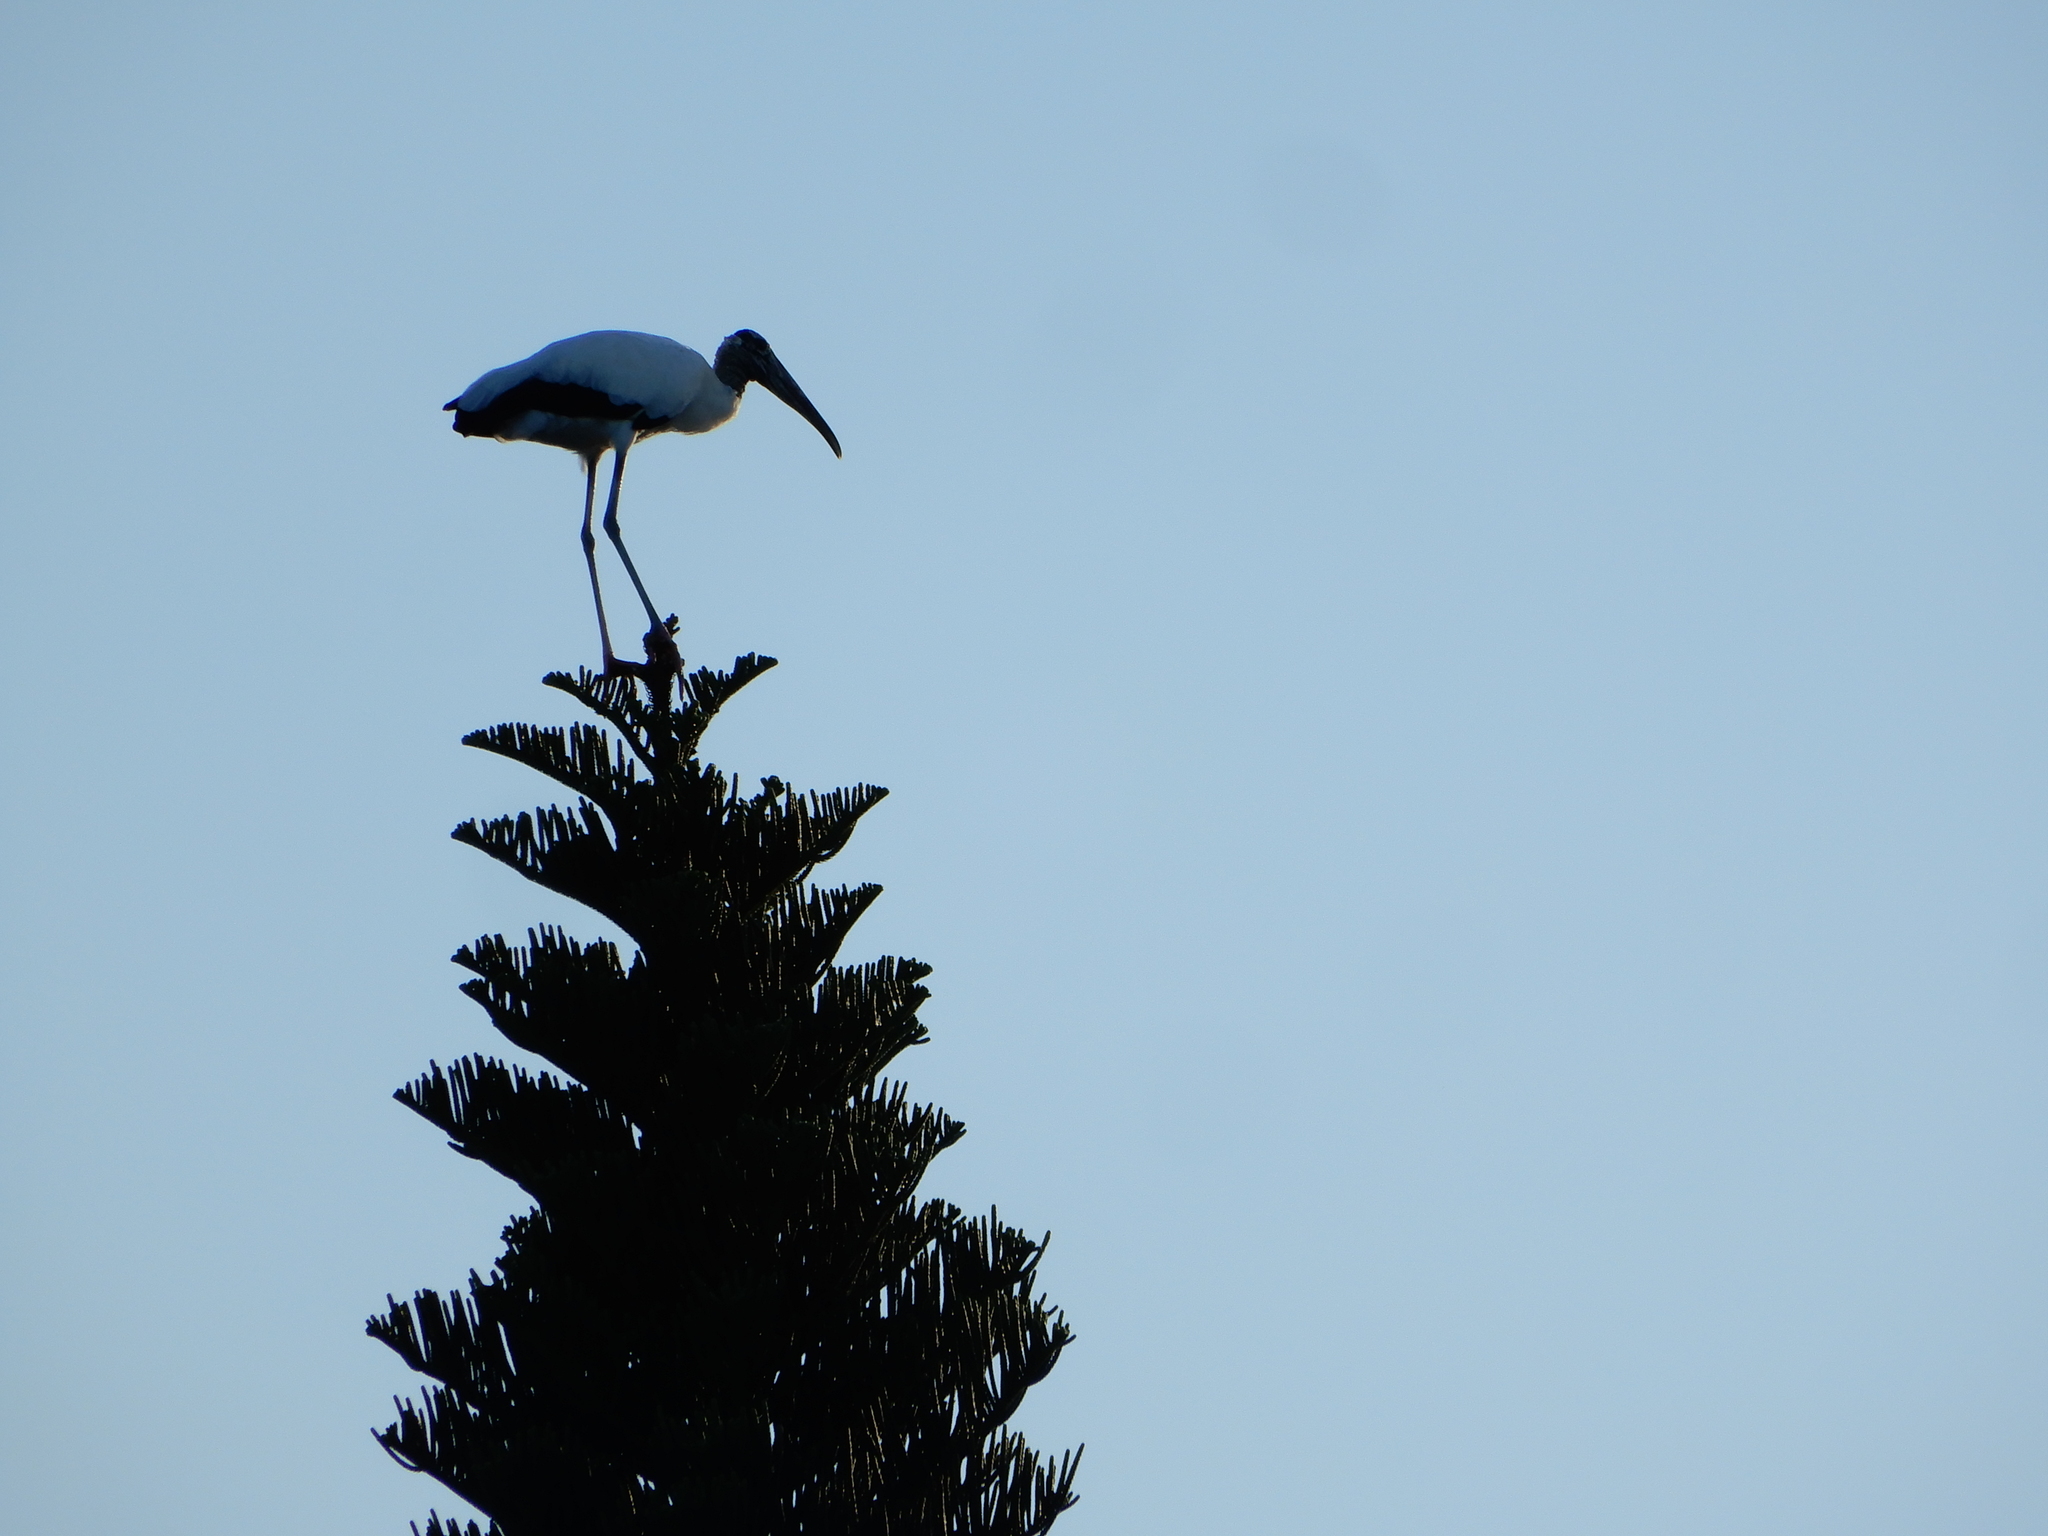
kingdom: Animalia
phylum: Chordata
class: Aves
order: Ciconiiformes
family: Ciconiidae
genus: Mycteria
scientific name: Mycteria americana
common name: Wood stork
